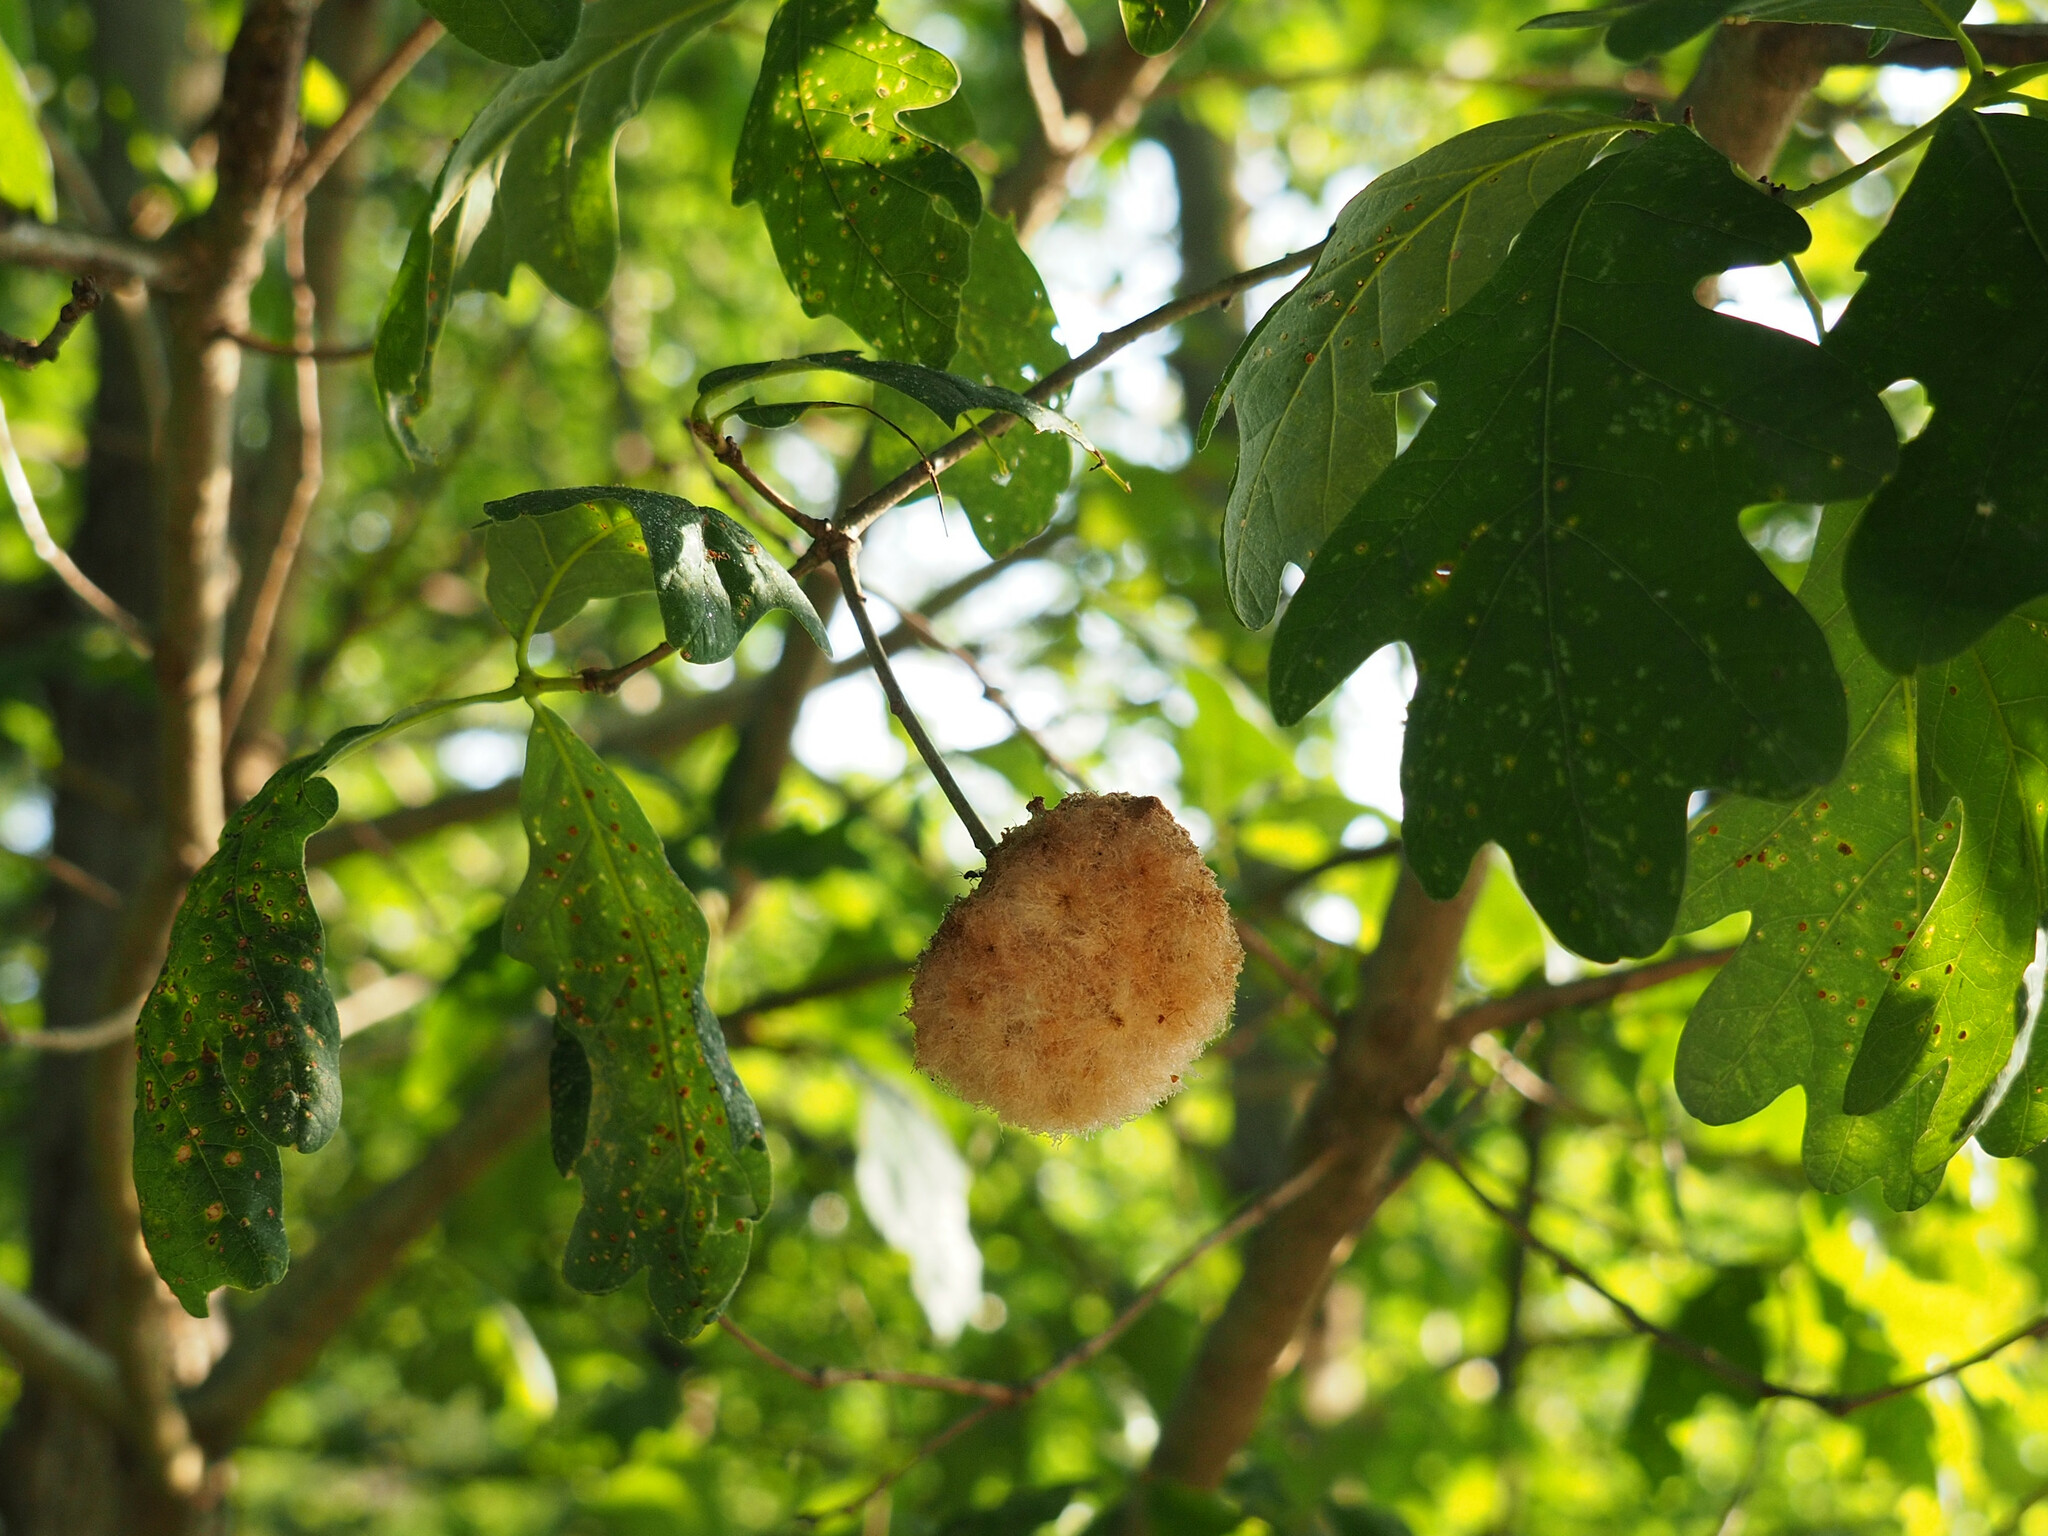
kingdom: Animalia
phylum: Arthropoda
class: Insecta
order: Hymenoptera
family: Cynipidae
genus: Callirhytis
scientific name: Callirhytis
